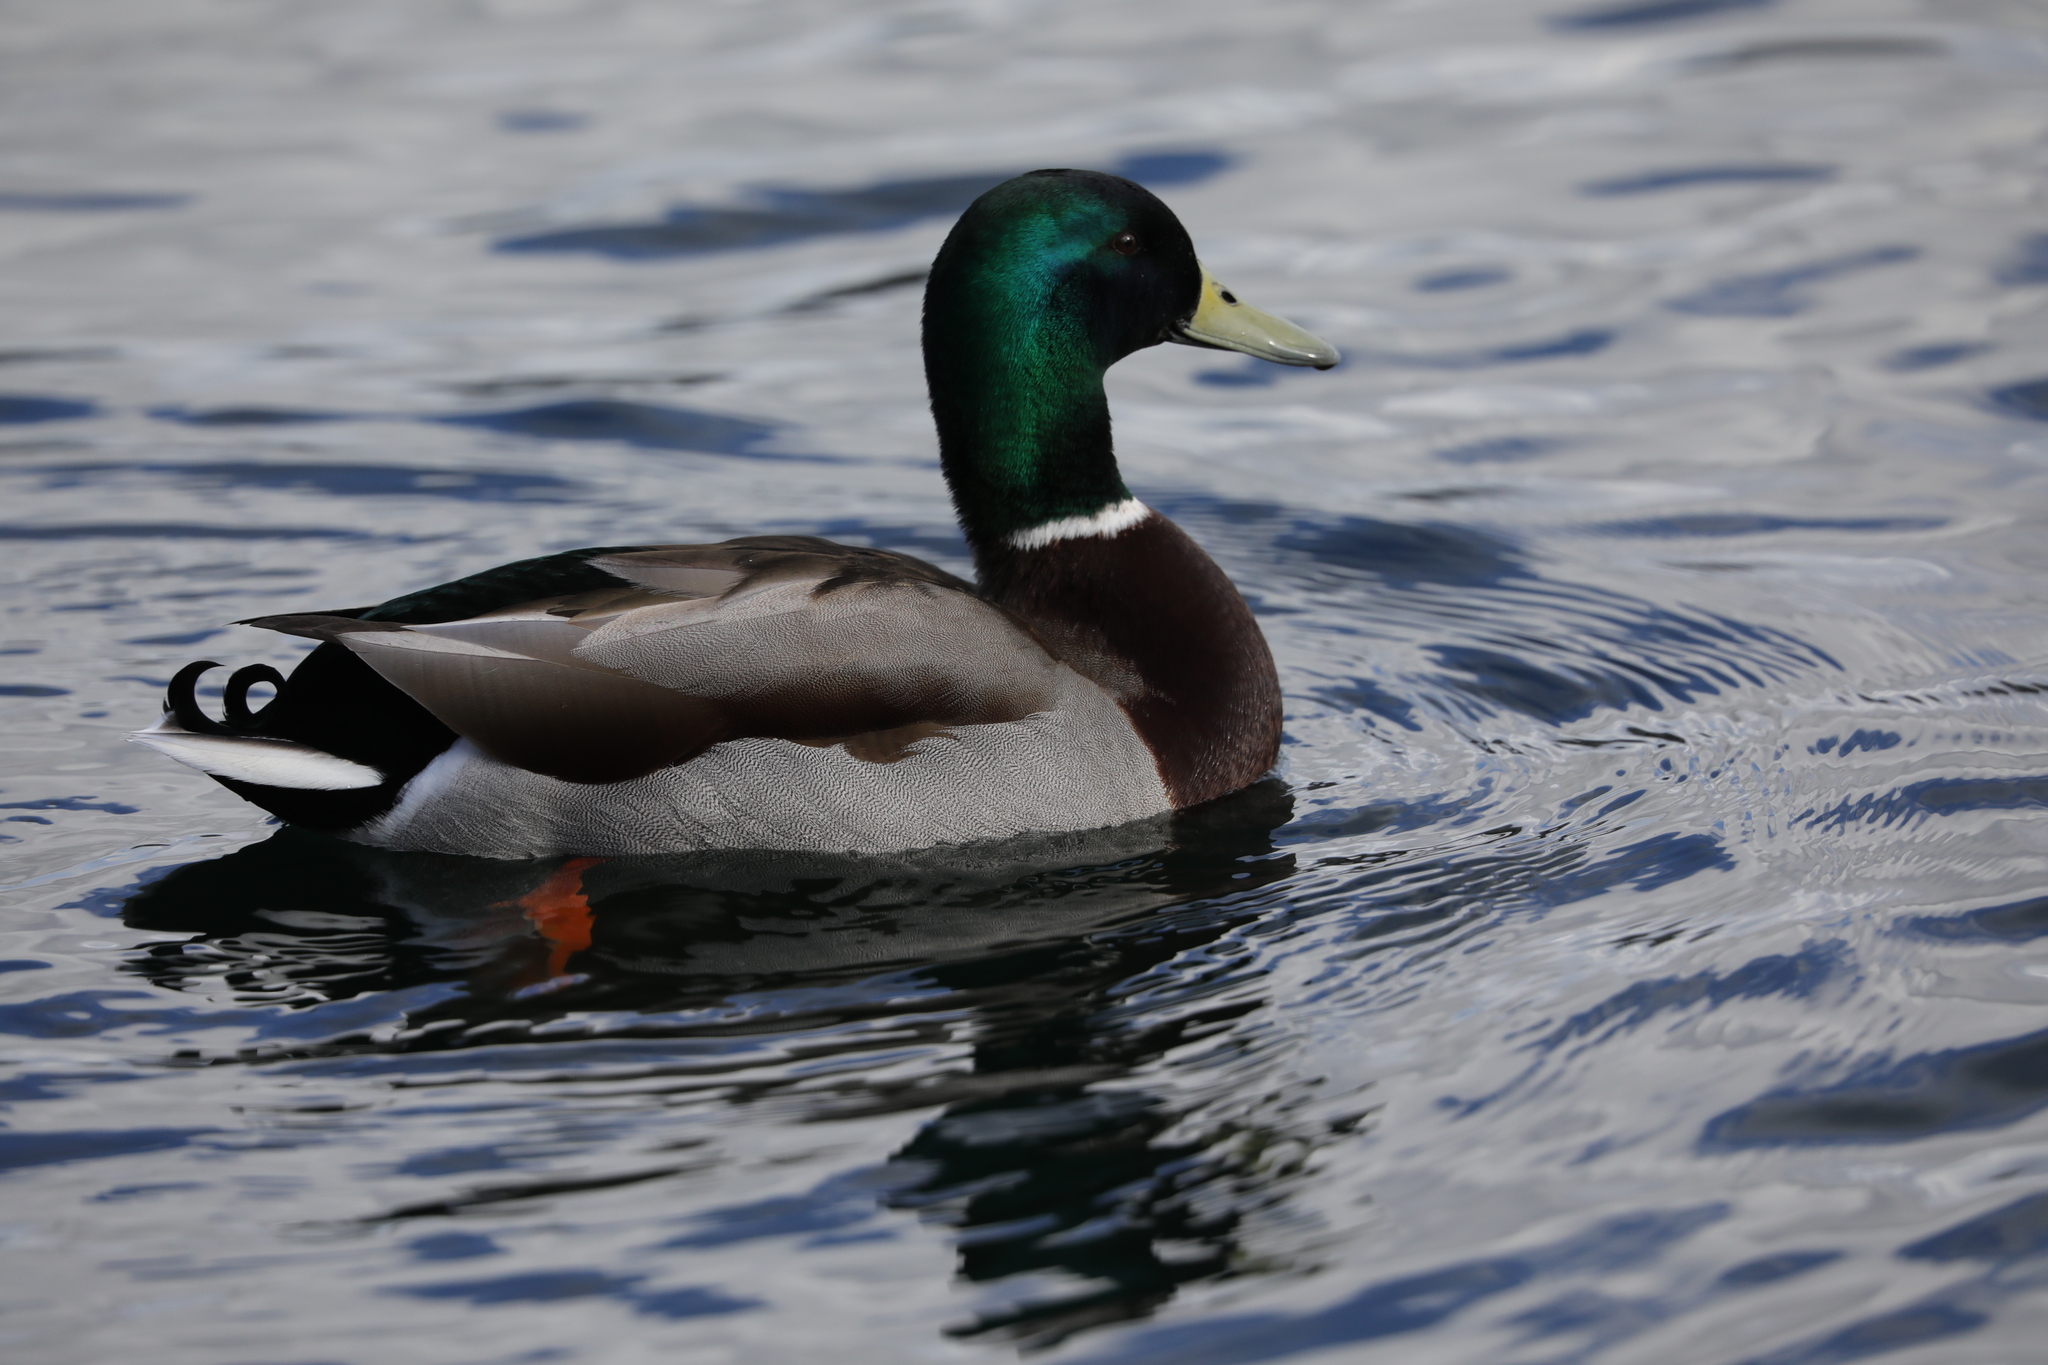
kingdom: Animalia
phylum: Chordata
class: Aves
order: Anseriformes
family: Anatidae
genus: Anas
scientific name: Anas platyrhynchos
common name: Mallard
